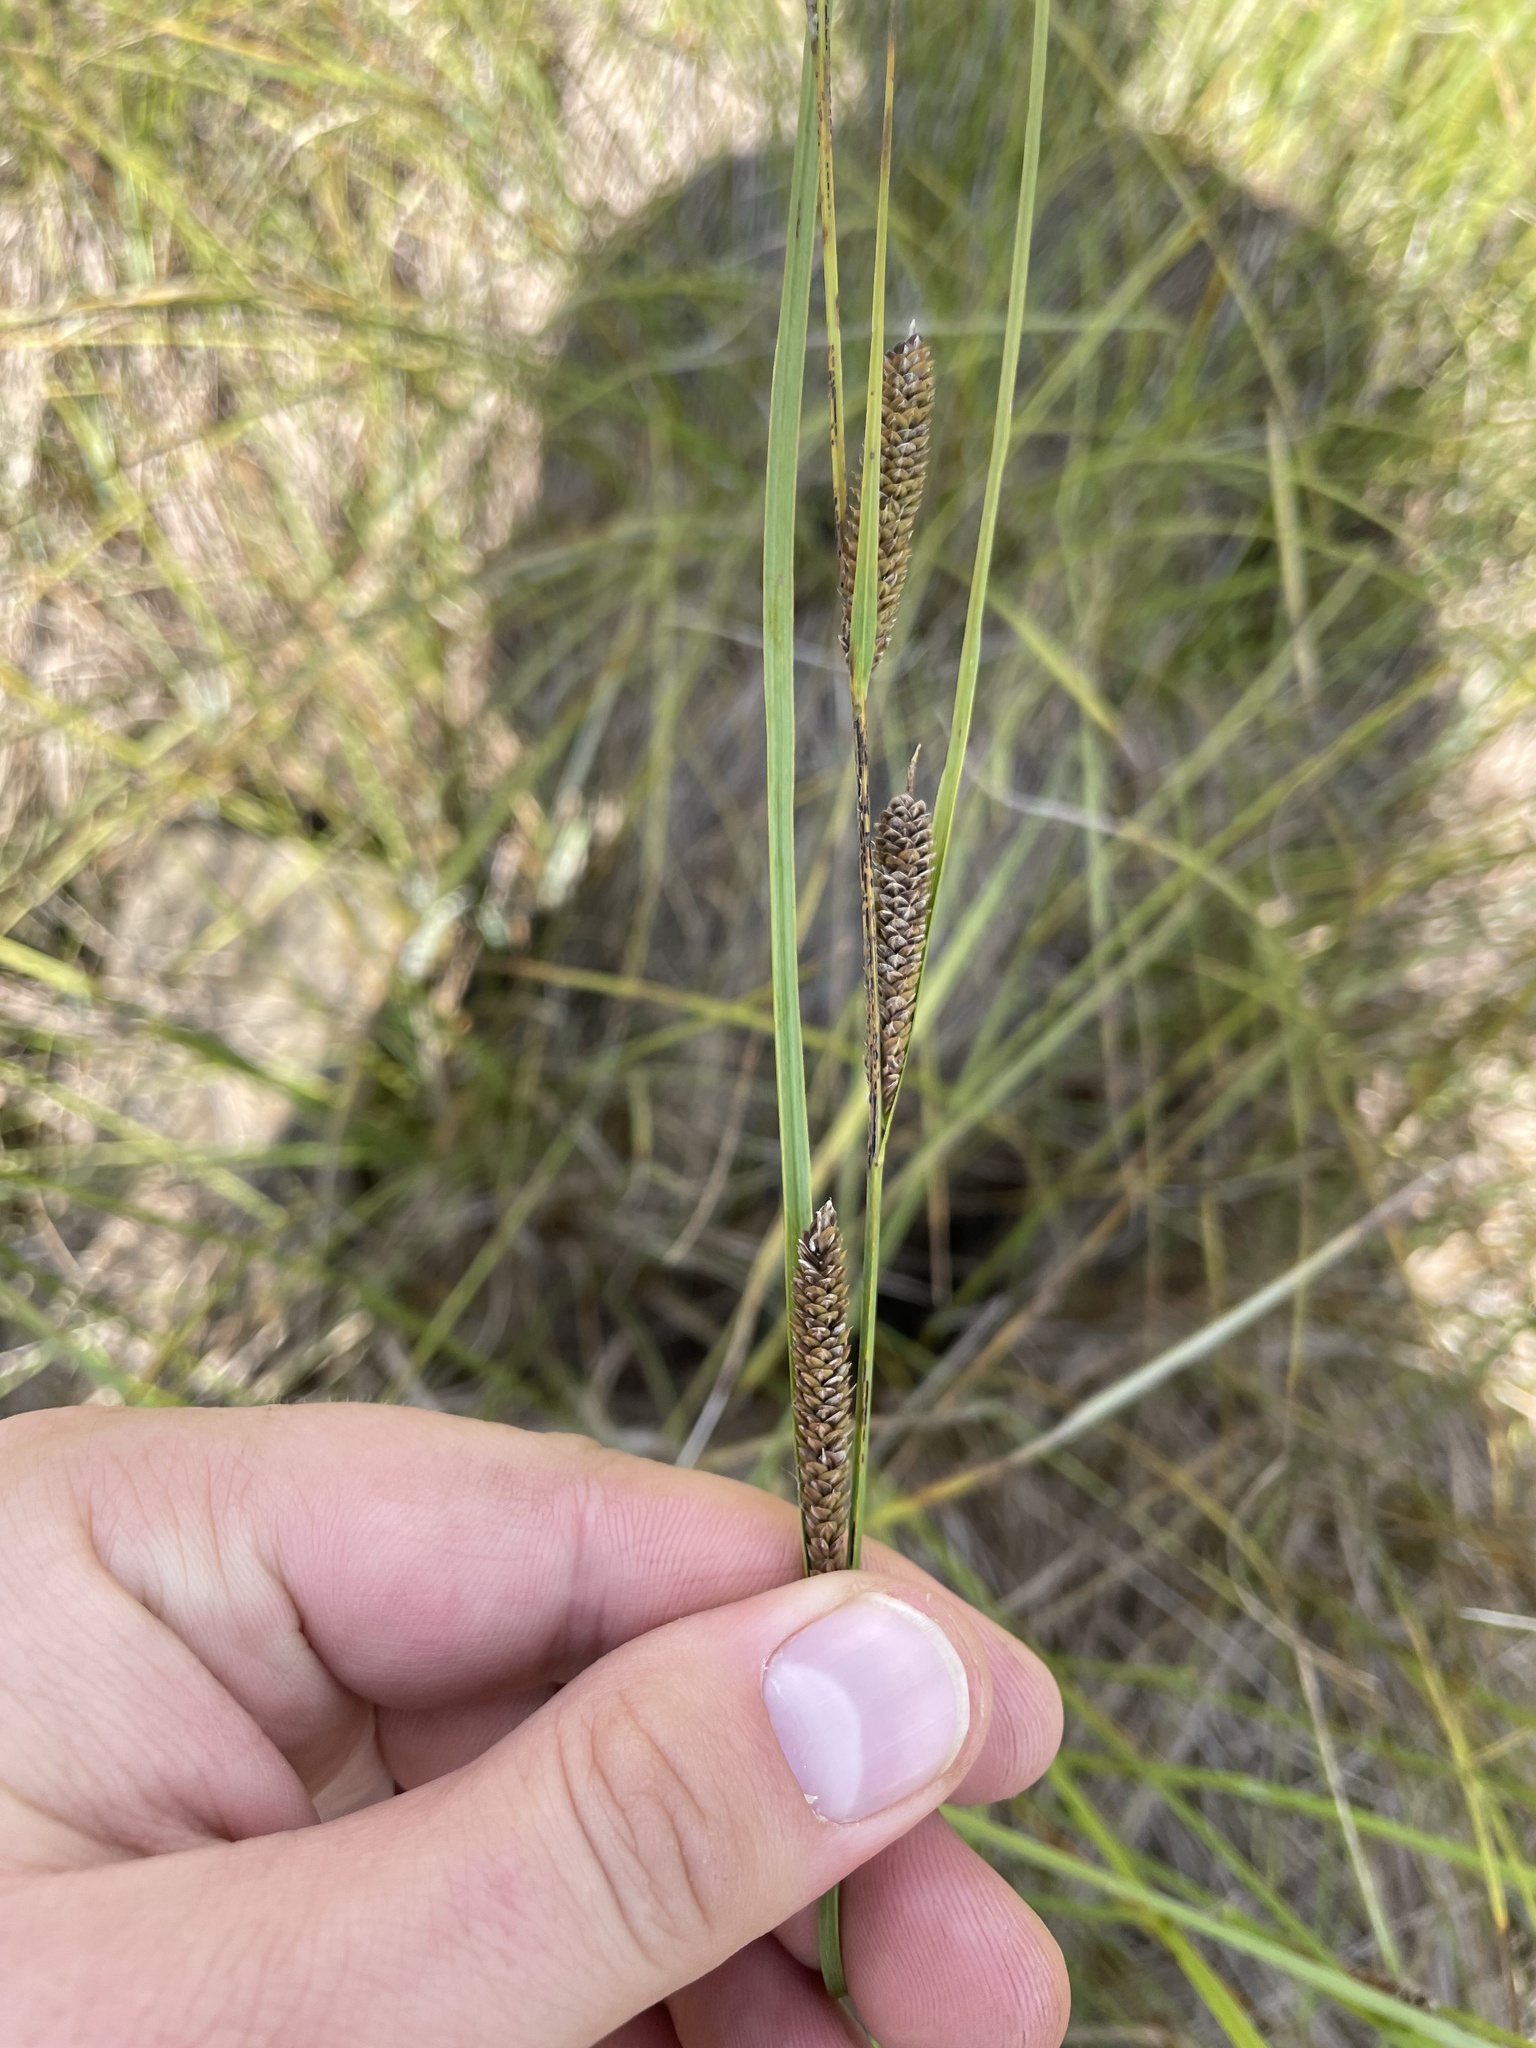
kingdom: Plantae
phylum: Tracheophyta
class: Liliopsida
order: Poales
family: Cyperaceae
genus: Carex
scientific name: Carex aquatilis
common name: Water sedge
